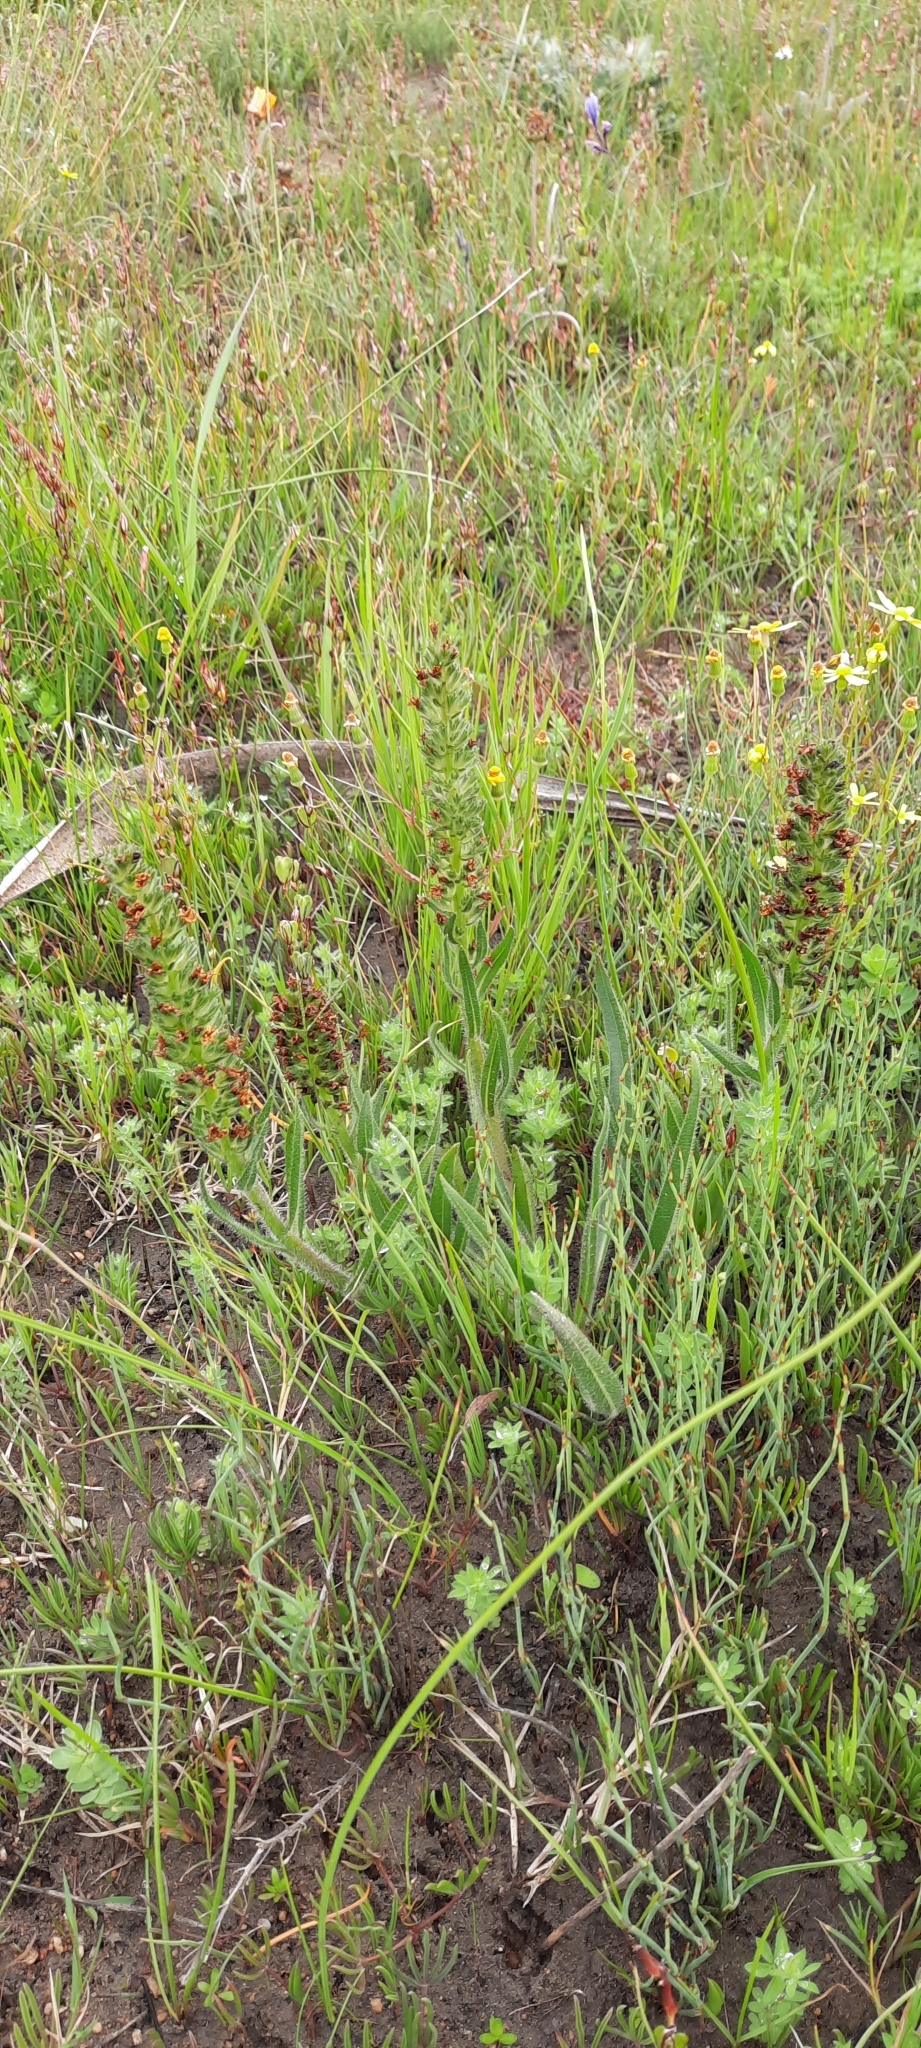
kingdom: Plantae
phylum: Tracheophyta
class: Magnoliopsida
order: Boraginales
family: Boraginaceae
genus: Lobostemon
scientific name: Lobostemon splendens
